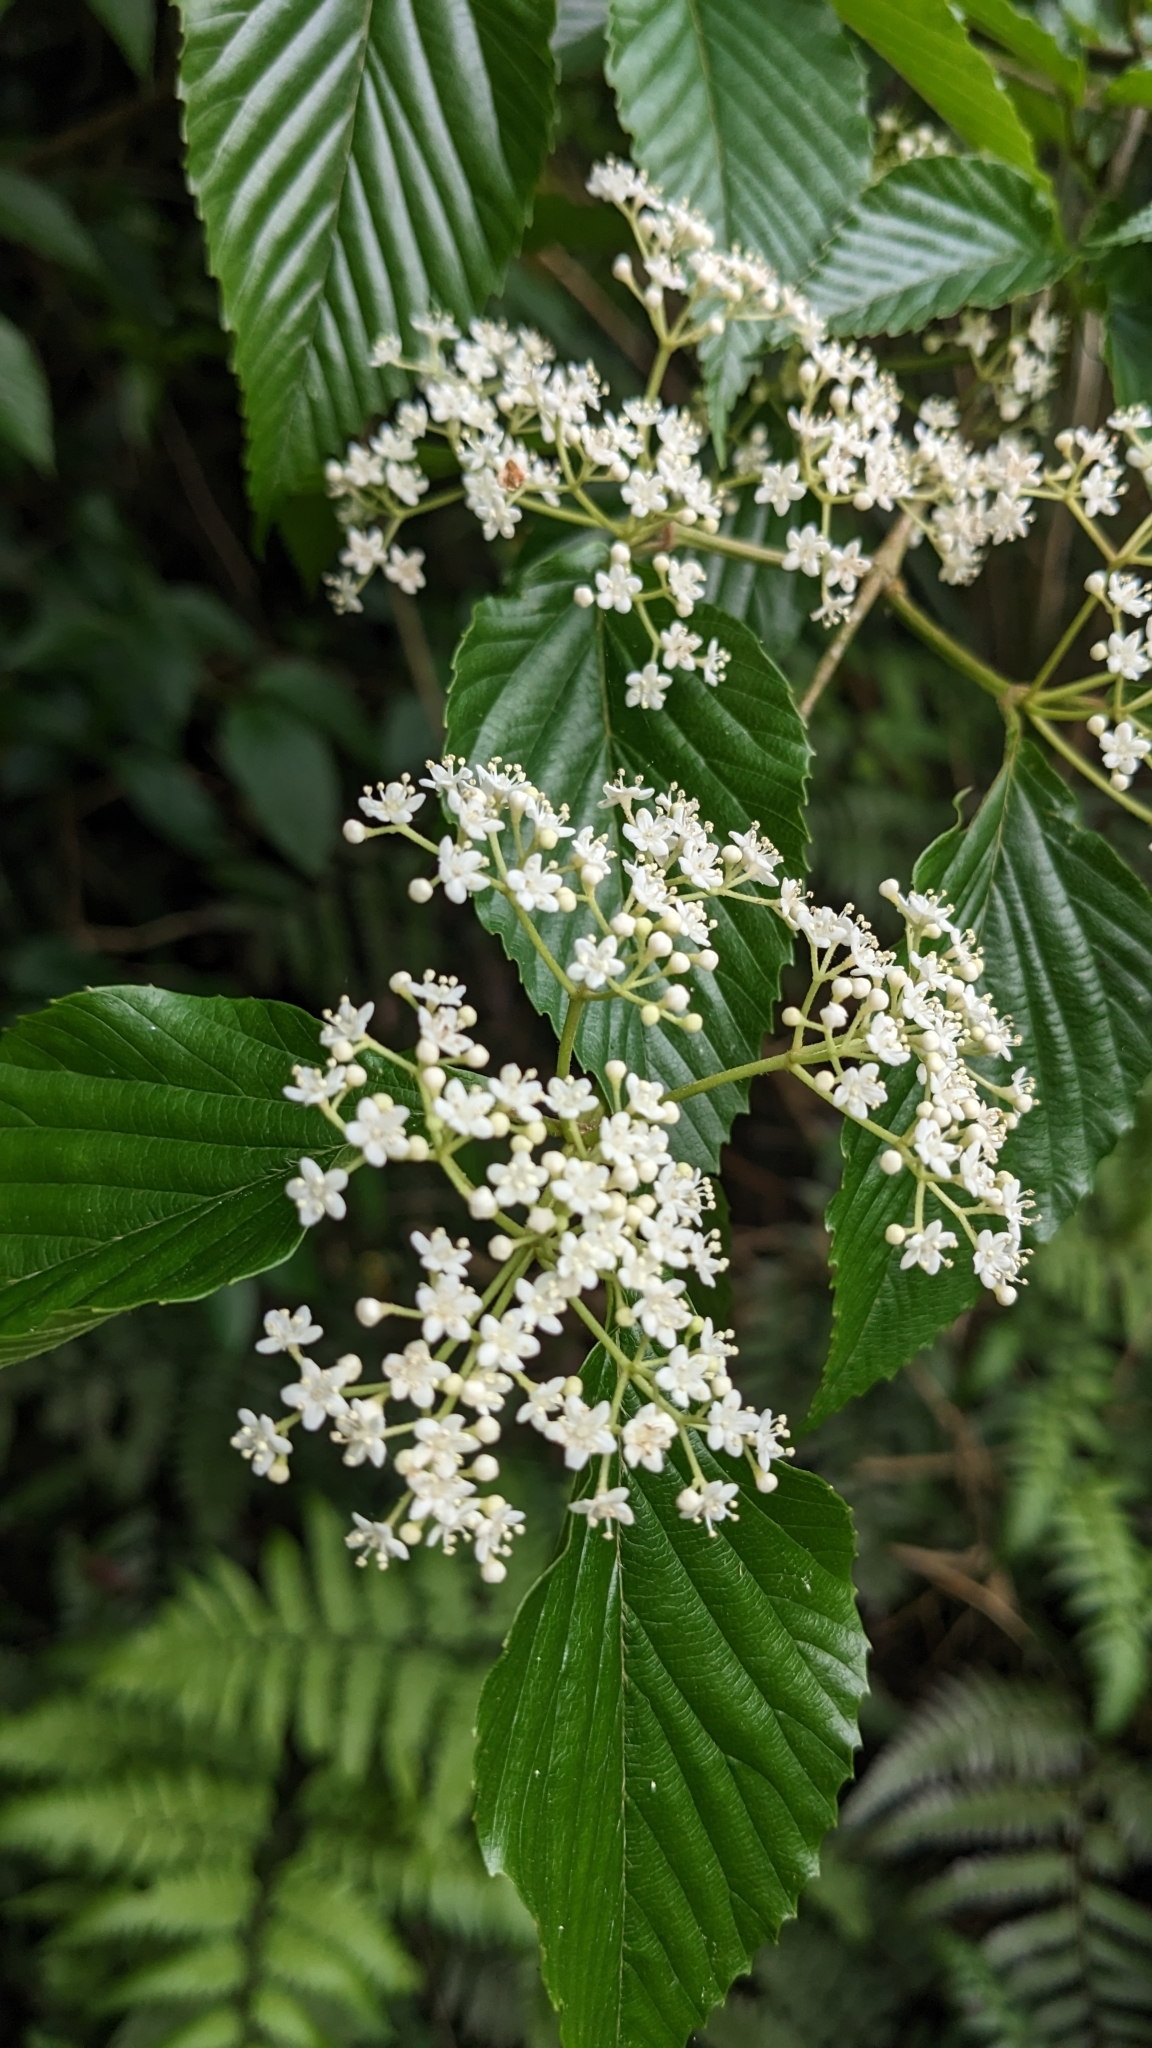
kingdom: Plantae
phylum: Tracheophyta
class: Magnoliopsida
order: Dipsacales
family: Viburnaceae
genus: Viburnum
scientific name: Viburnum luzonicum
